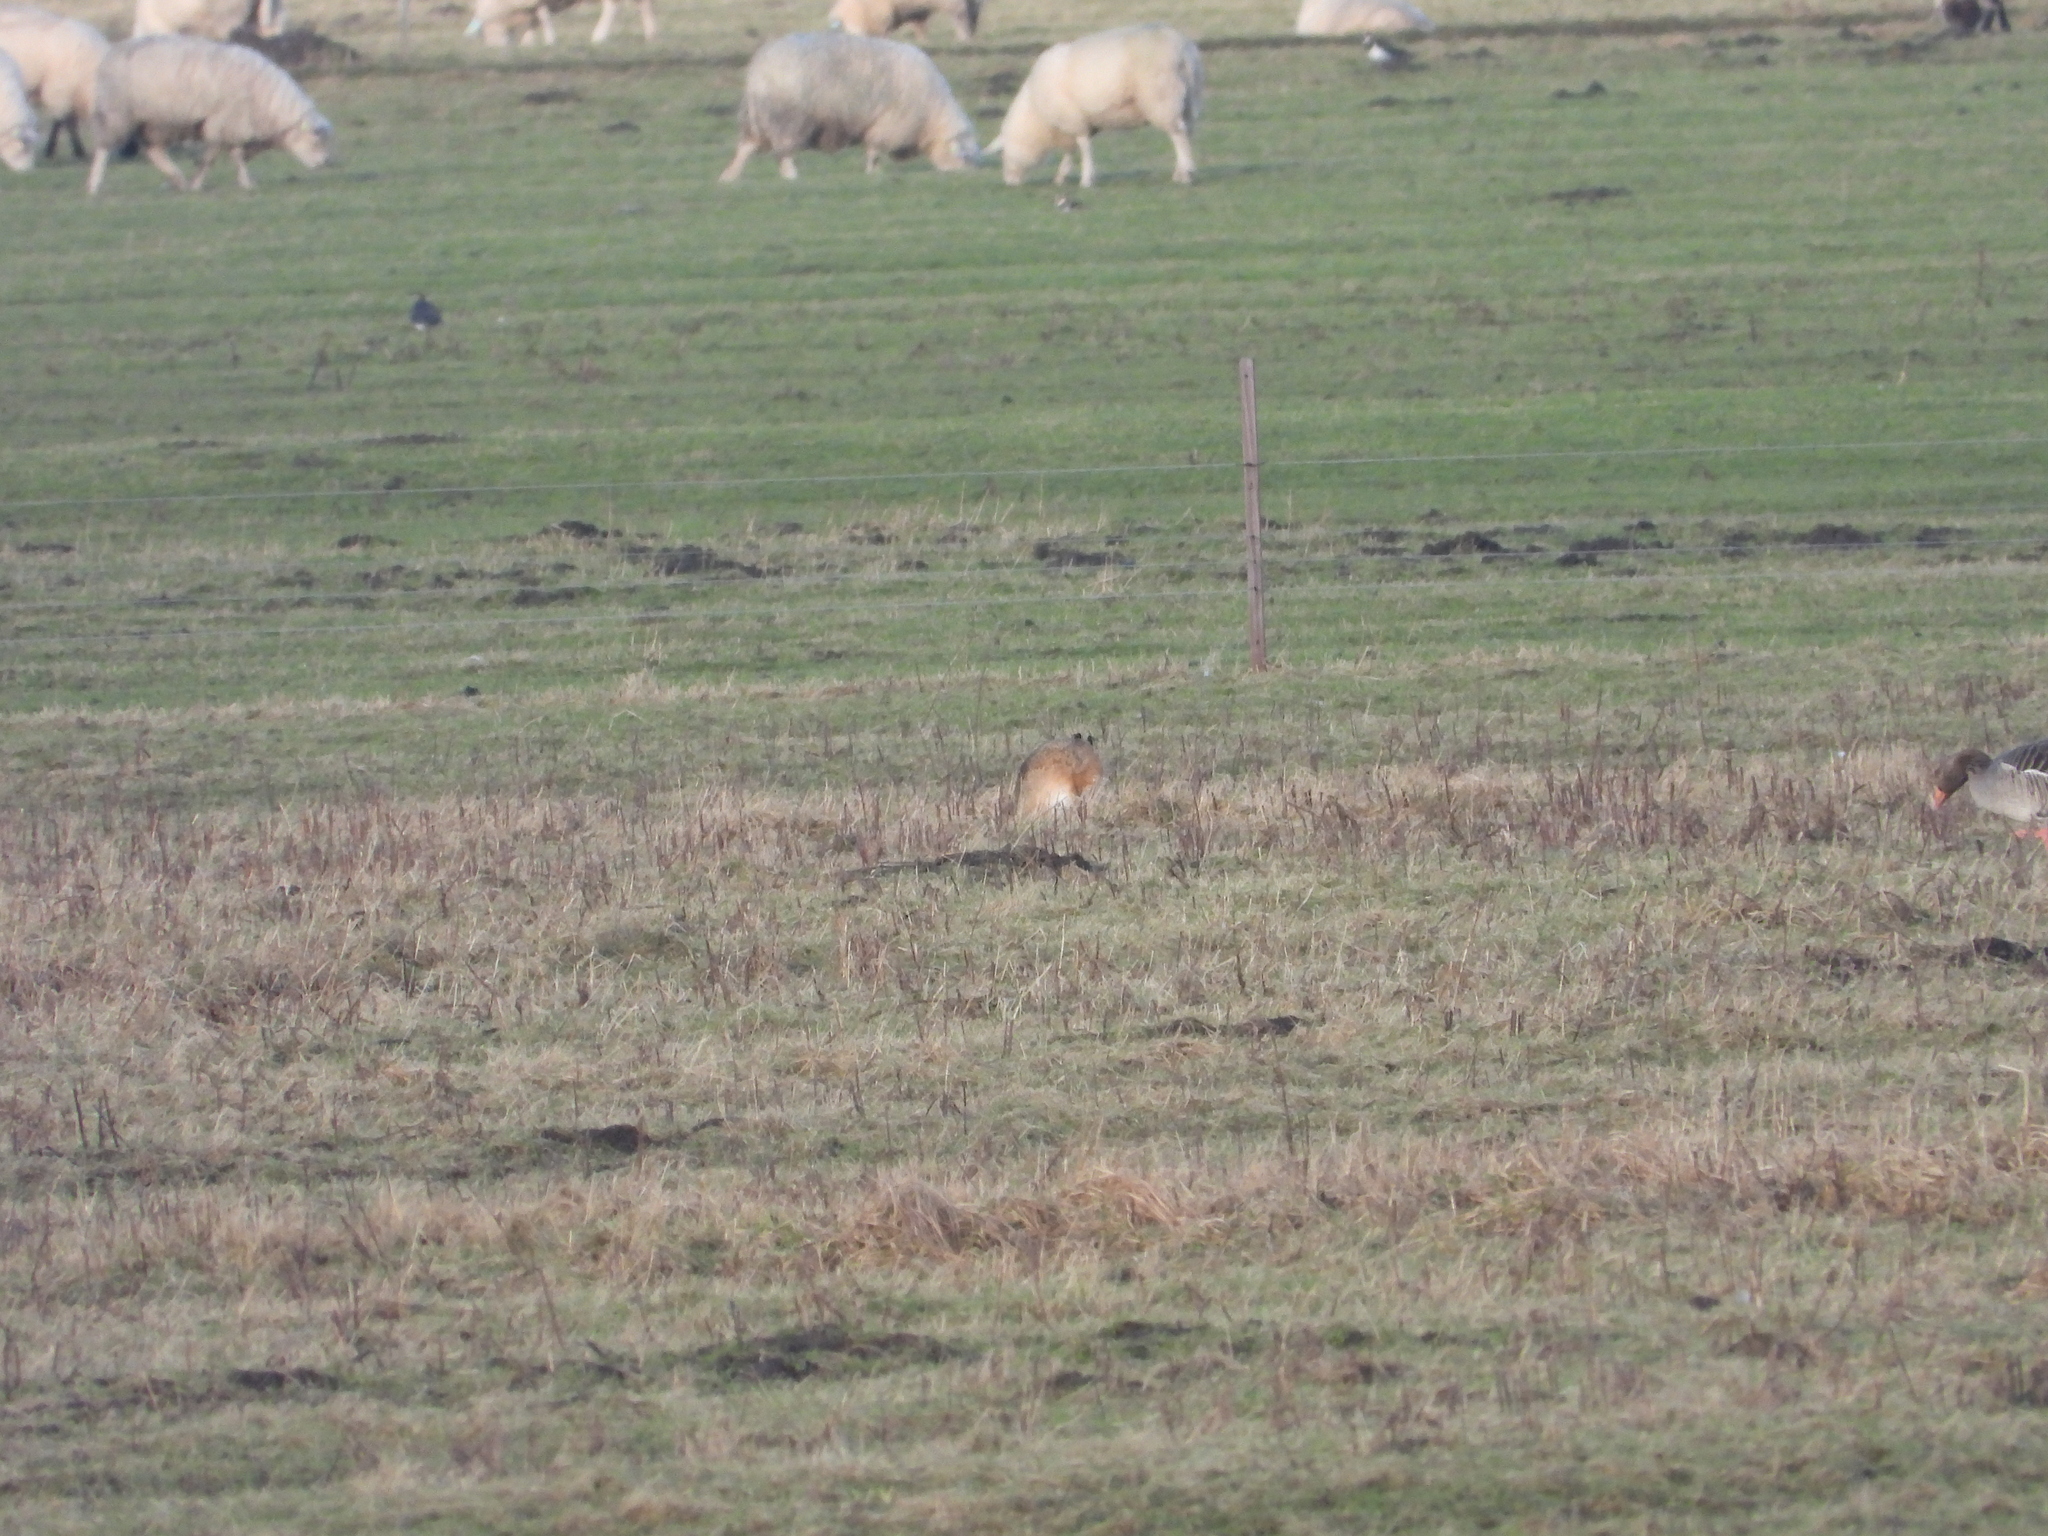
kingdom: Animalia
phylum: Chordata
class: Mammalia
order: Lagomorpha
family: Leporidae
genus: Lepus
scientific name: Lepus europaeus
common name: European hare
